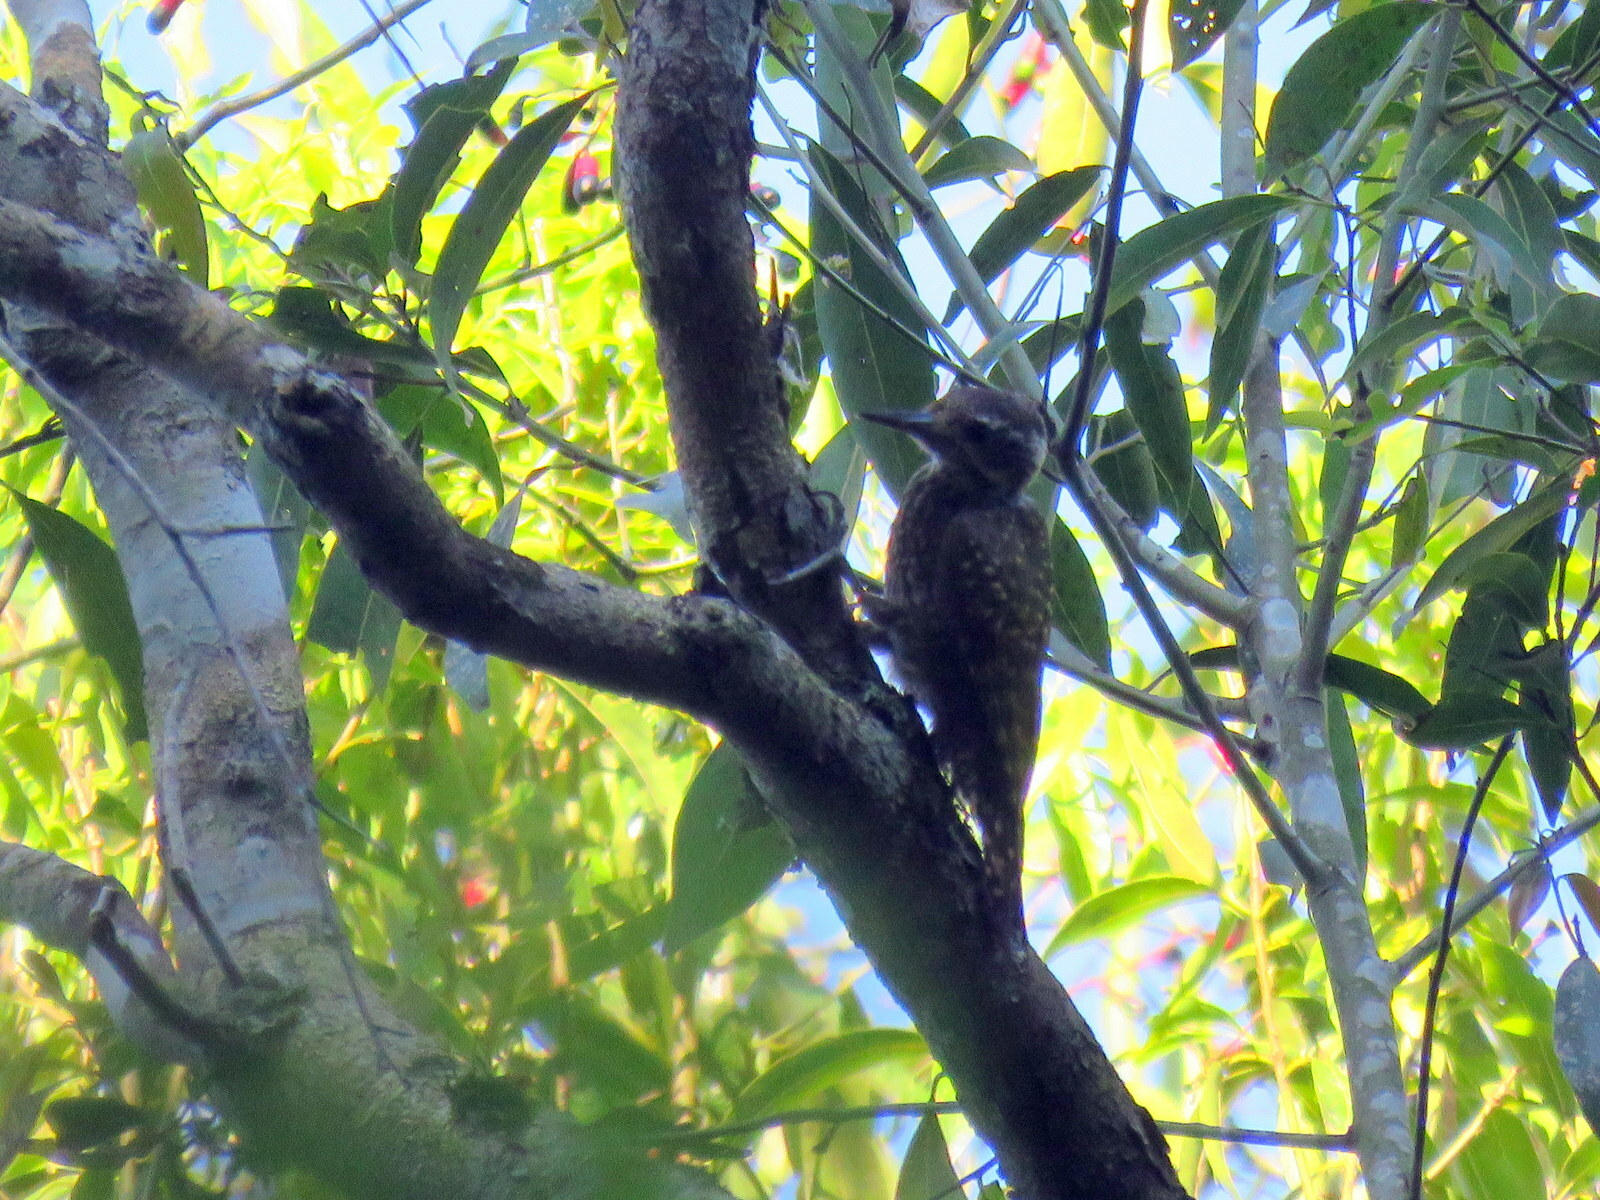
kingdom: Animalia
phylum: Chordata
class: Aves
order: Piciformes
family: Picidae
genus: Veniliornis
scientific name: Veniliornis spilogaster
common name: White-spotted woodpecker
